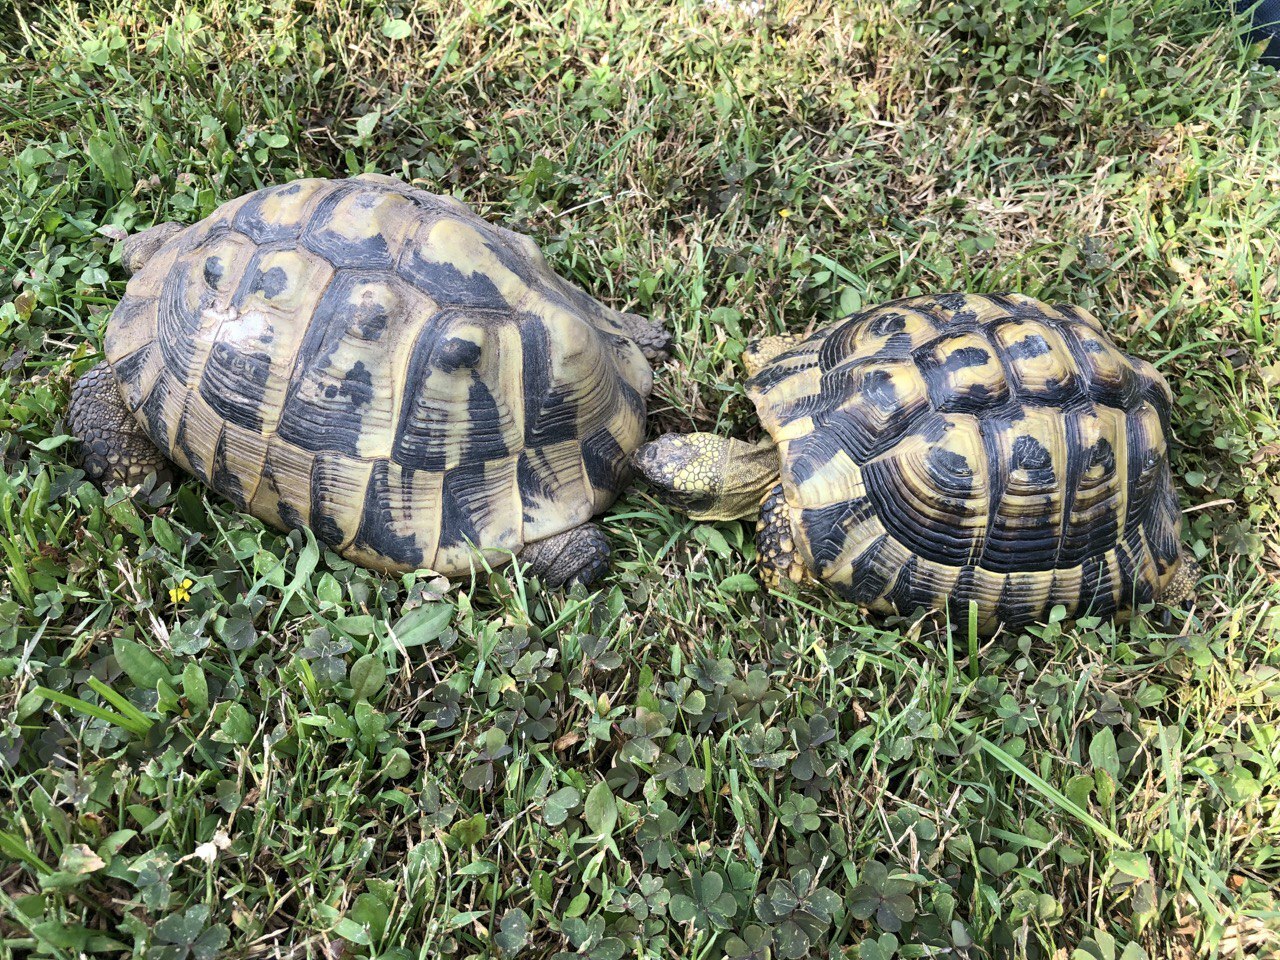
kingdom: Animalia
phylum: Chordata
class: Testudines
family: Testudinidae
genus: Testudo
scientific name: Testudo hermanni
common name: Hermann's tortoise
